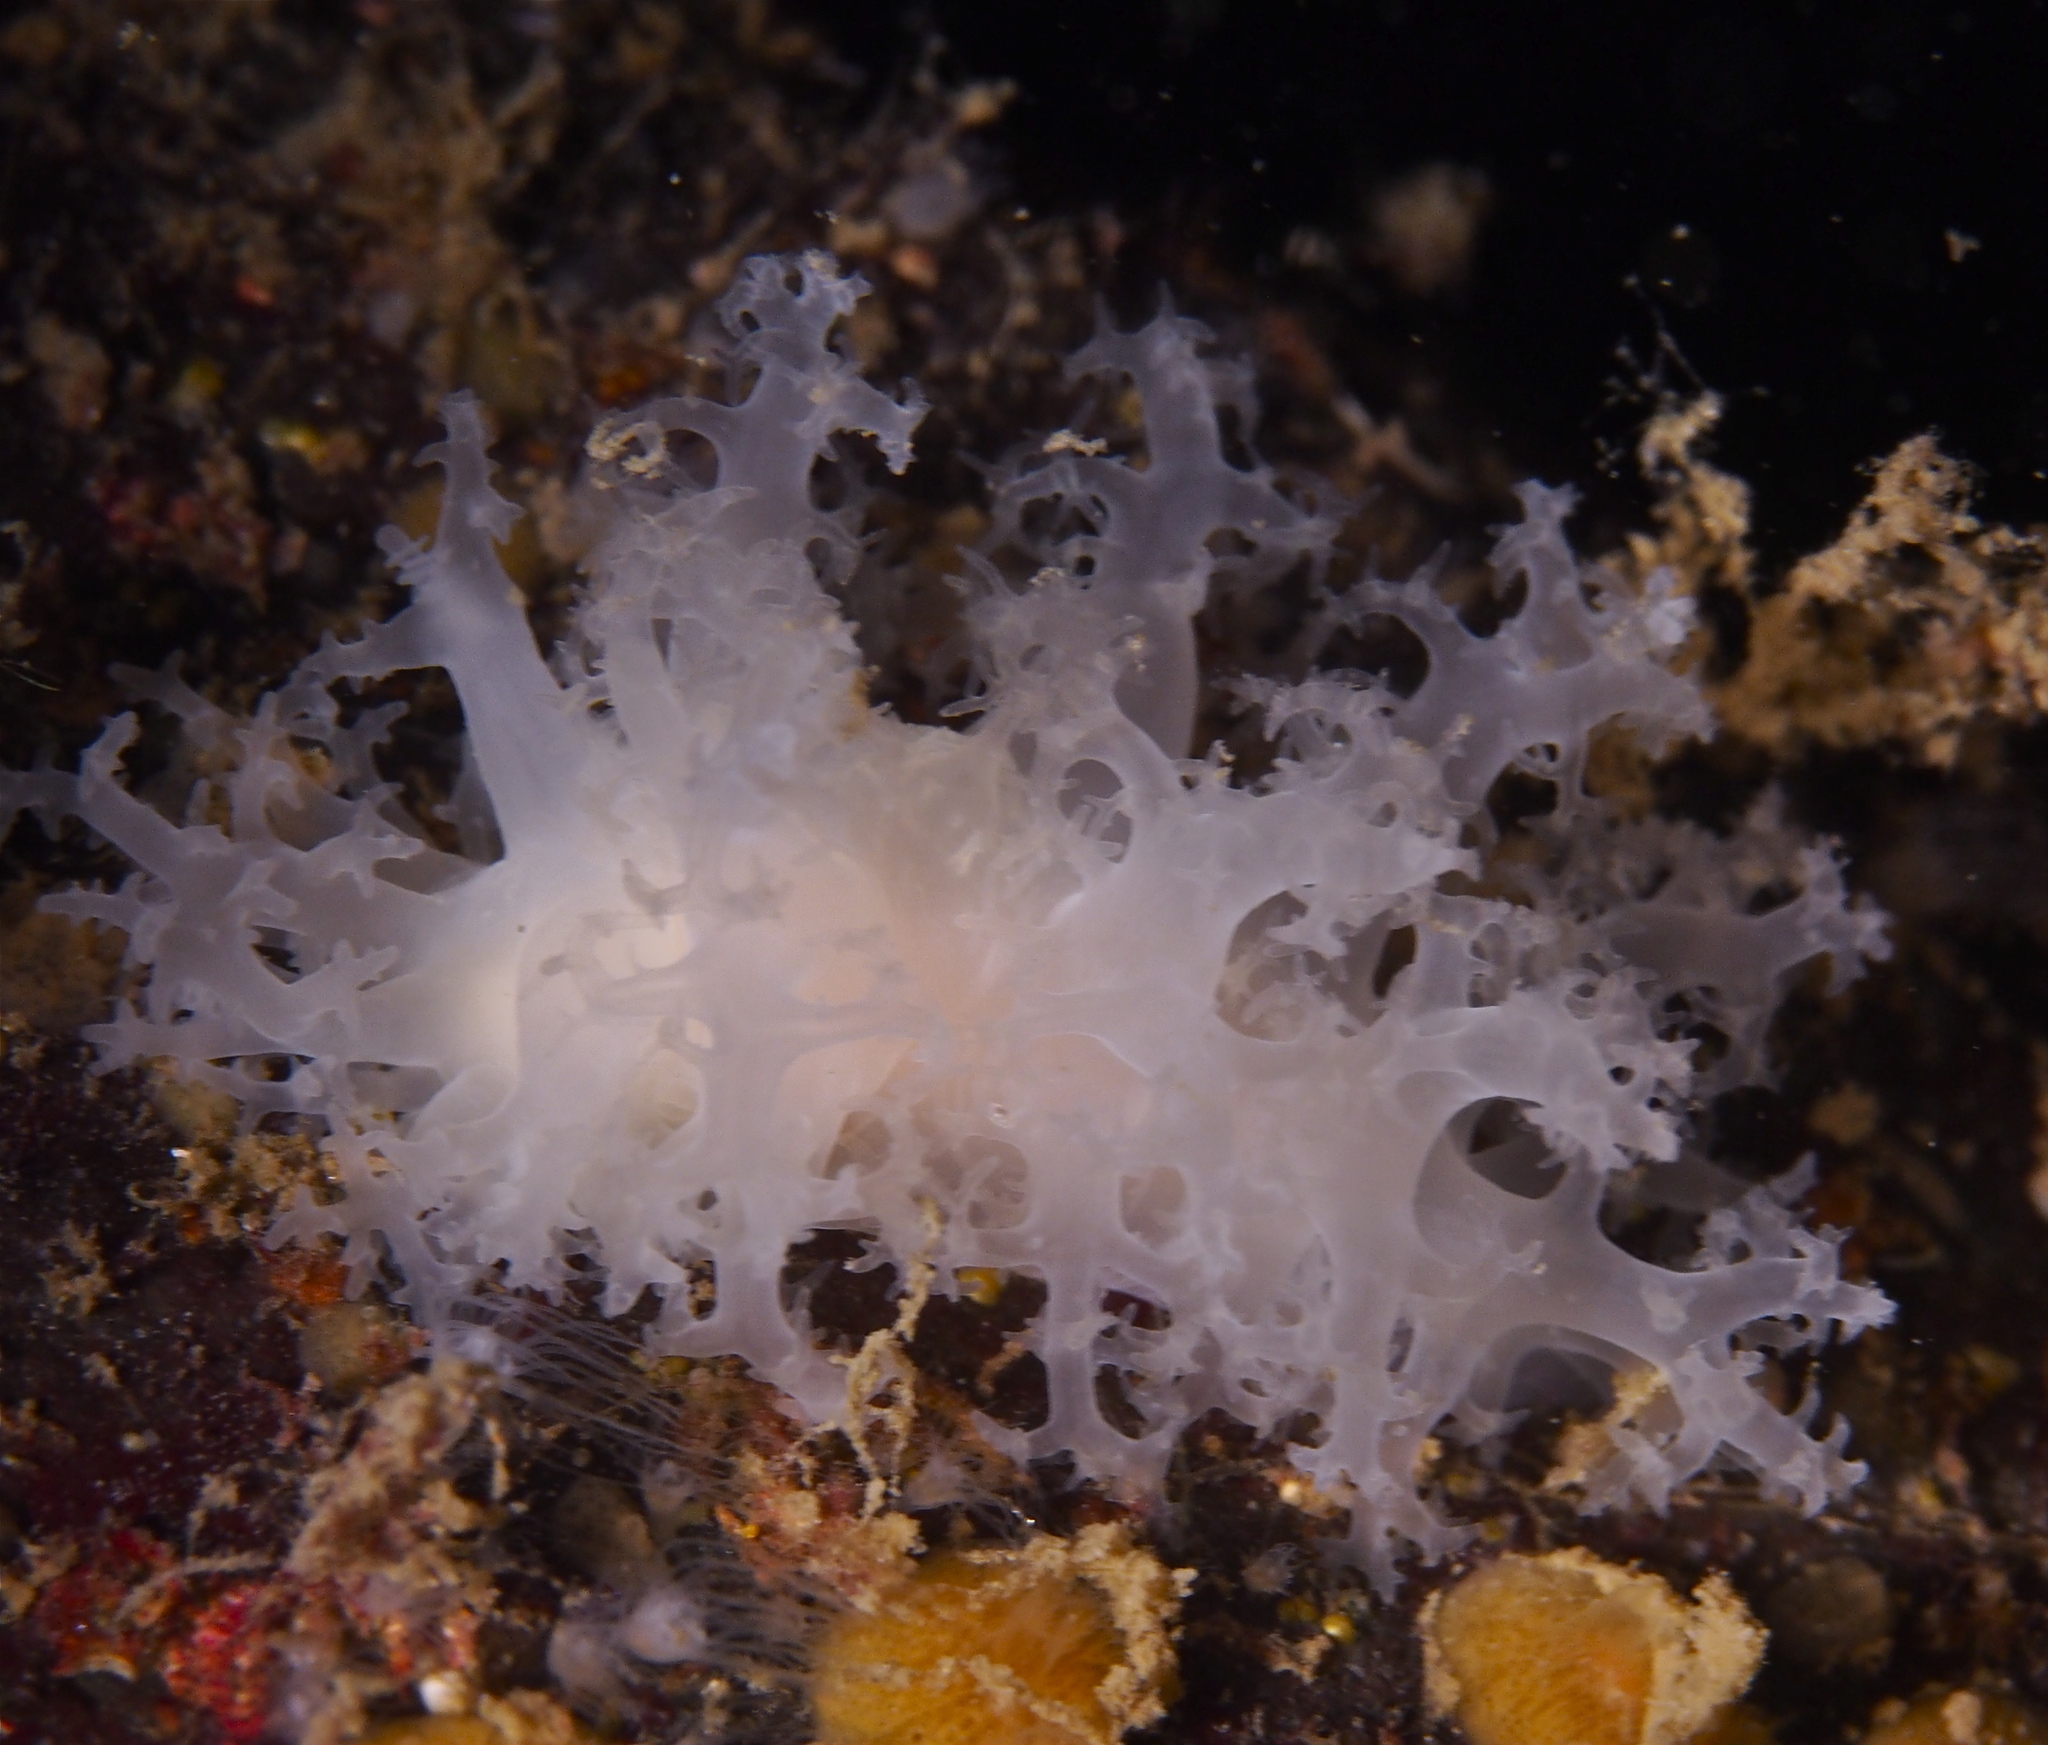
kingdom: Animalia
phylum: Mollusca
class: Gastropoda
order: Nudibranchia
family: Dendronotidae
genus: Dendronotus
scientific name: Dendronotus lacteus
